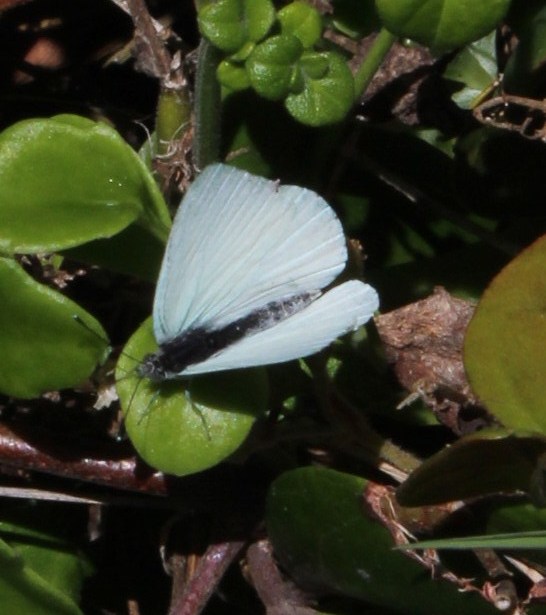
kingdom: Animalia
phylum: Arthropoda
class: Insecta
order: Lepidoptera
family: Pieridae
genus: Dixeia
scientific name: Dixeia charina
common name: African small white
